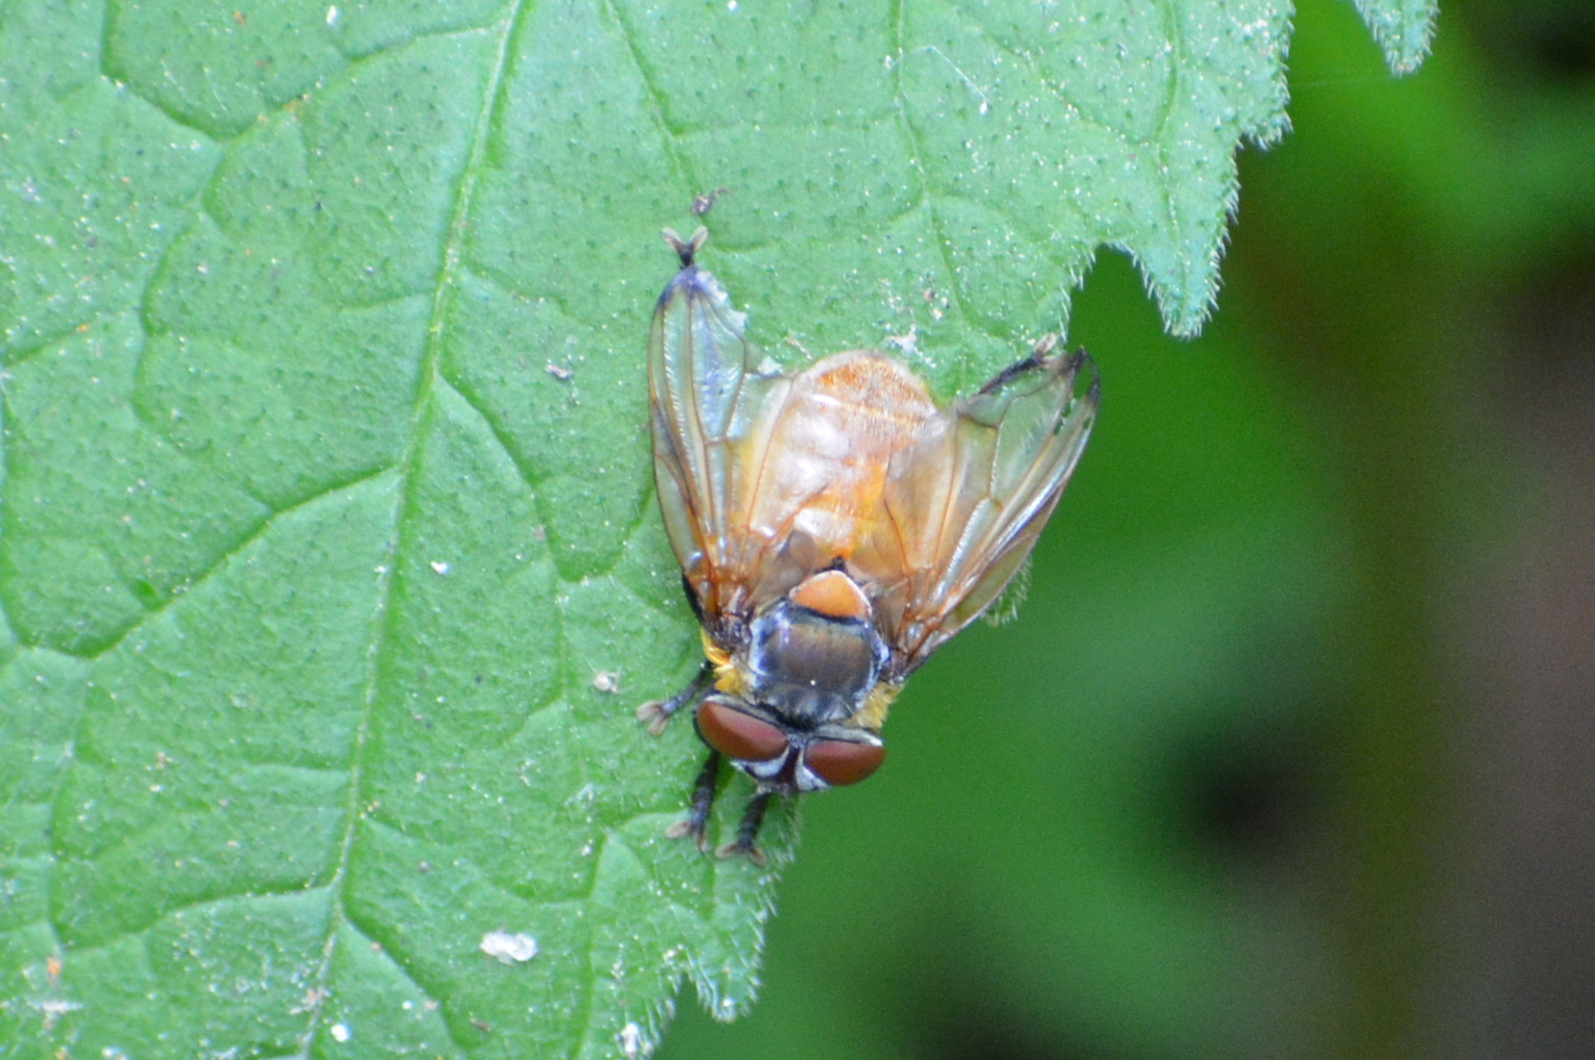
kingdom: Animalia
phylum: Arthropoda
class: Insecta
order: Diptera
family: Tachinidae
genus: Phasia
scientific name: Phasia hemiptera
